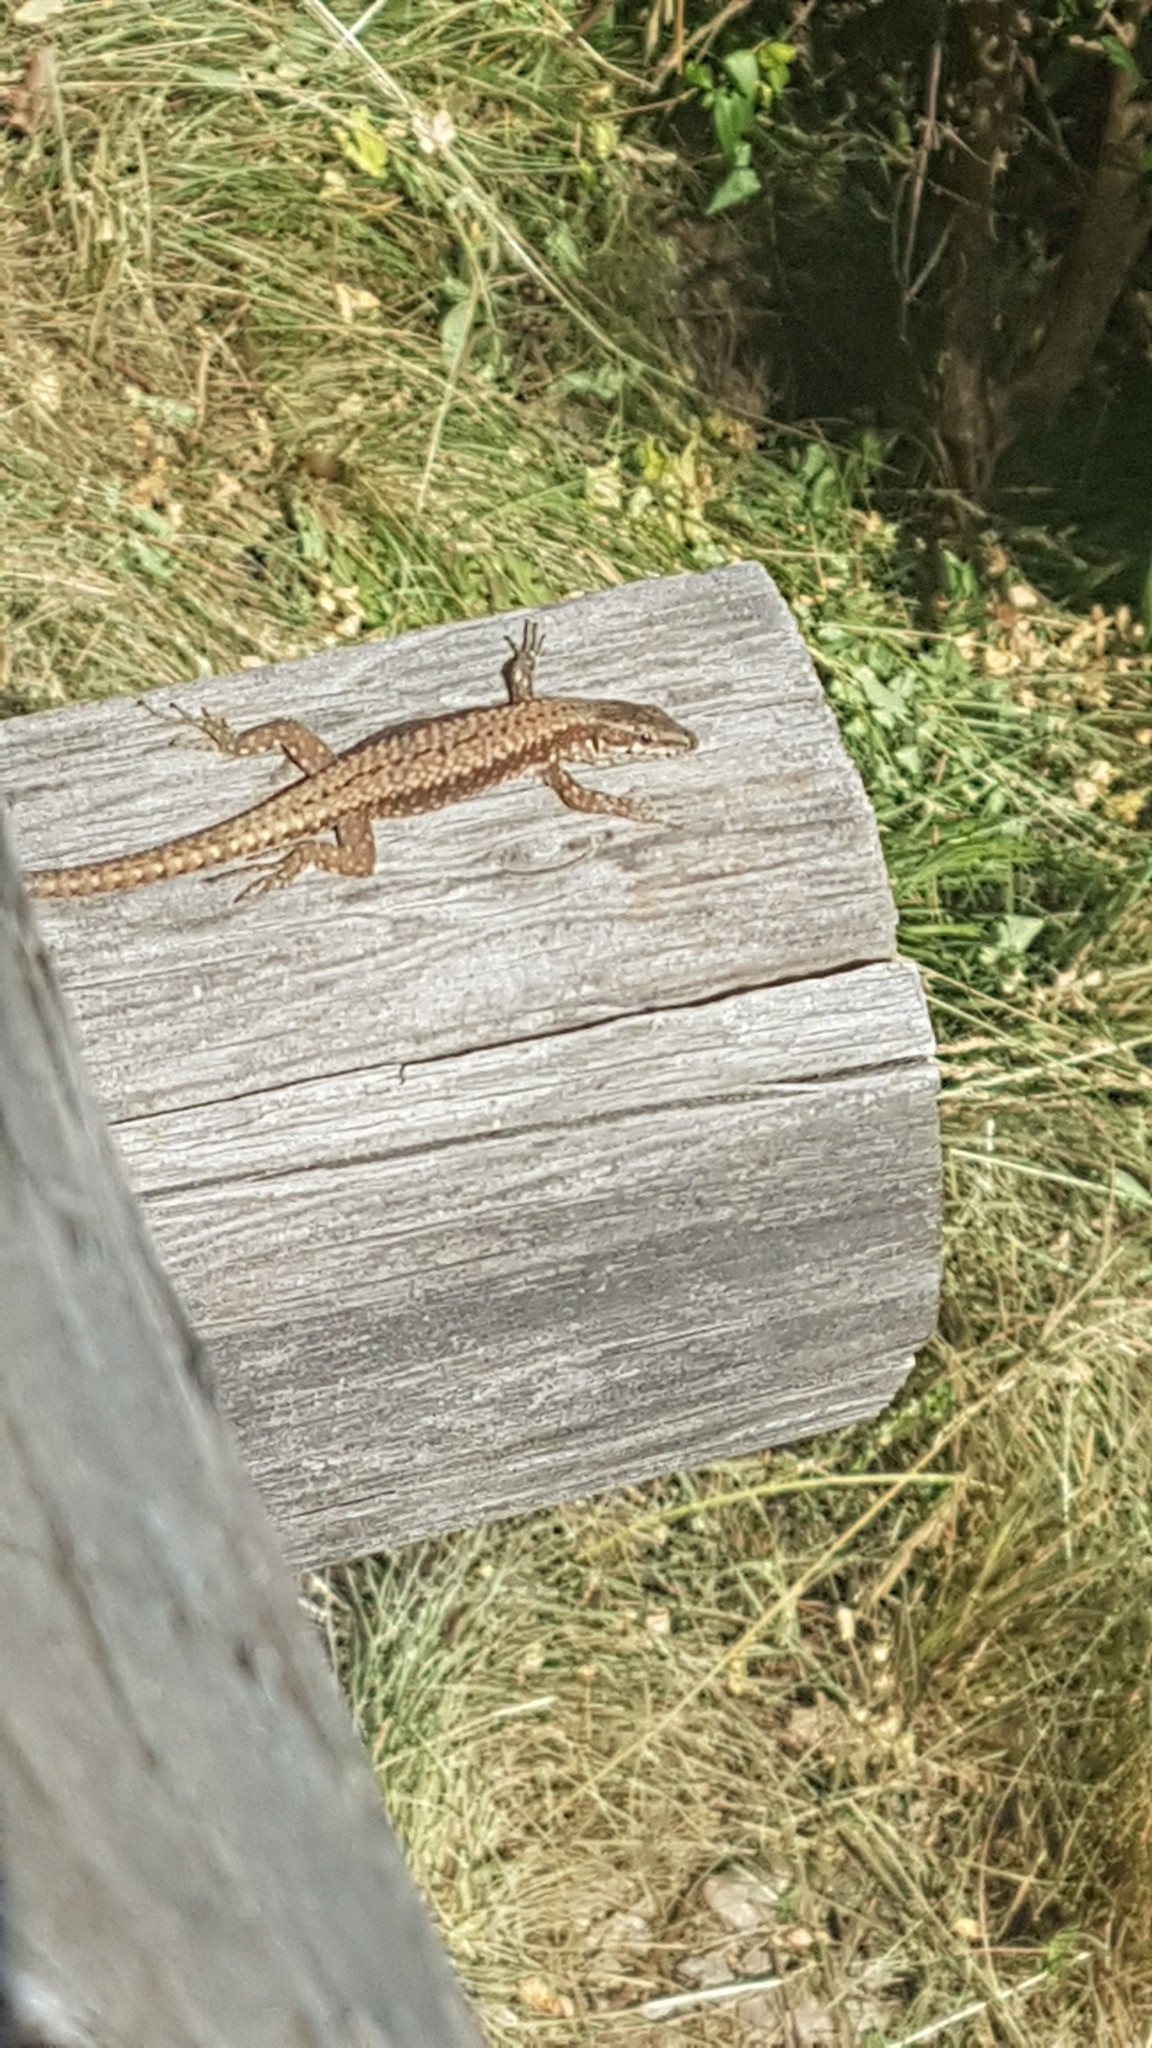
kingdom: Animalia
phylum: Chordata
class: Squamata
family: Lacertidae
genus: Podarcis
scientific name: Podarcis muralis
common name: Common wall lizard
